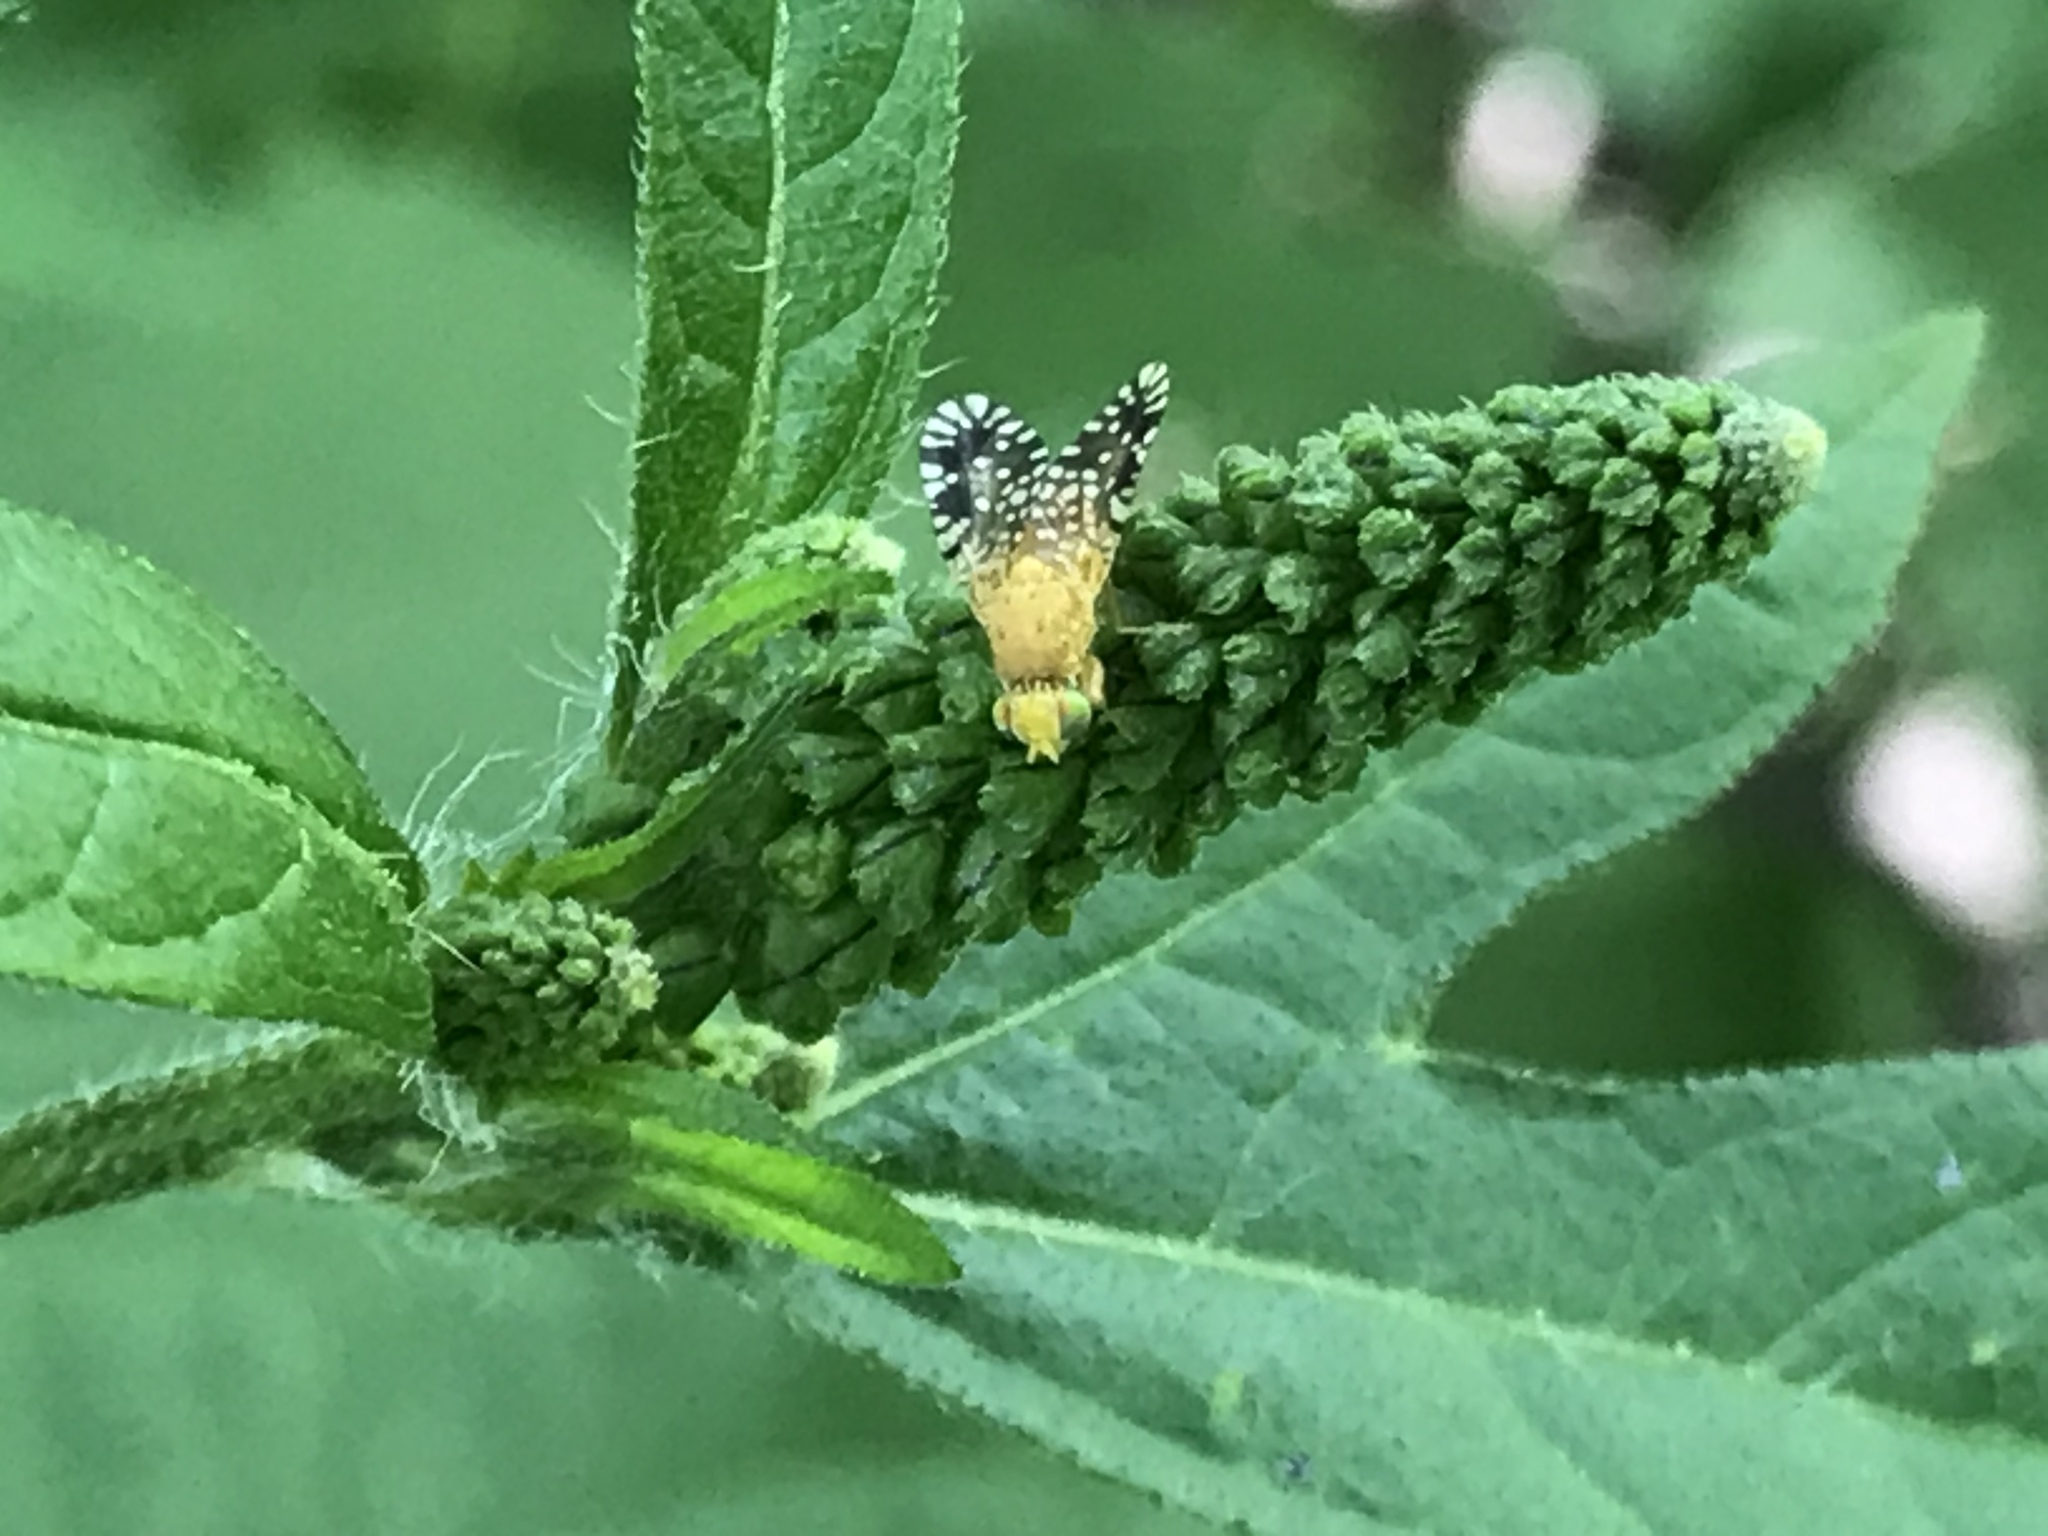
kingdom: Animalia
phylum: Arthropoda
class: Insecta
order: Diptera
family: Tephritidae
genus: Euaresta
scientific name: Euaresta festiva
